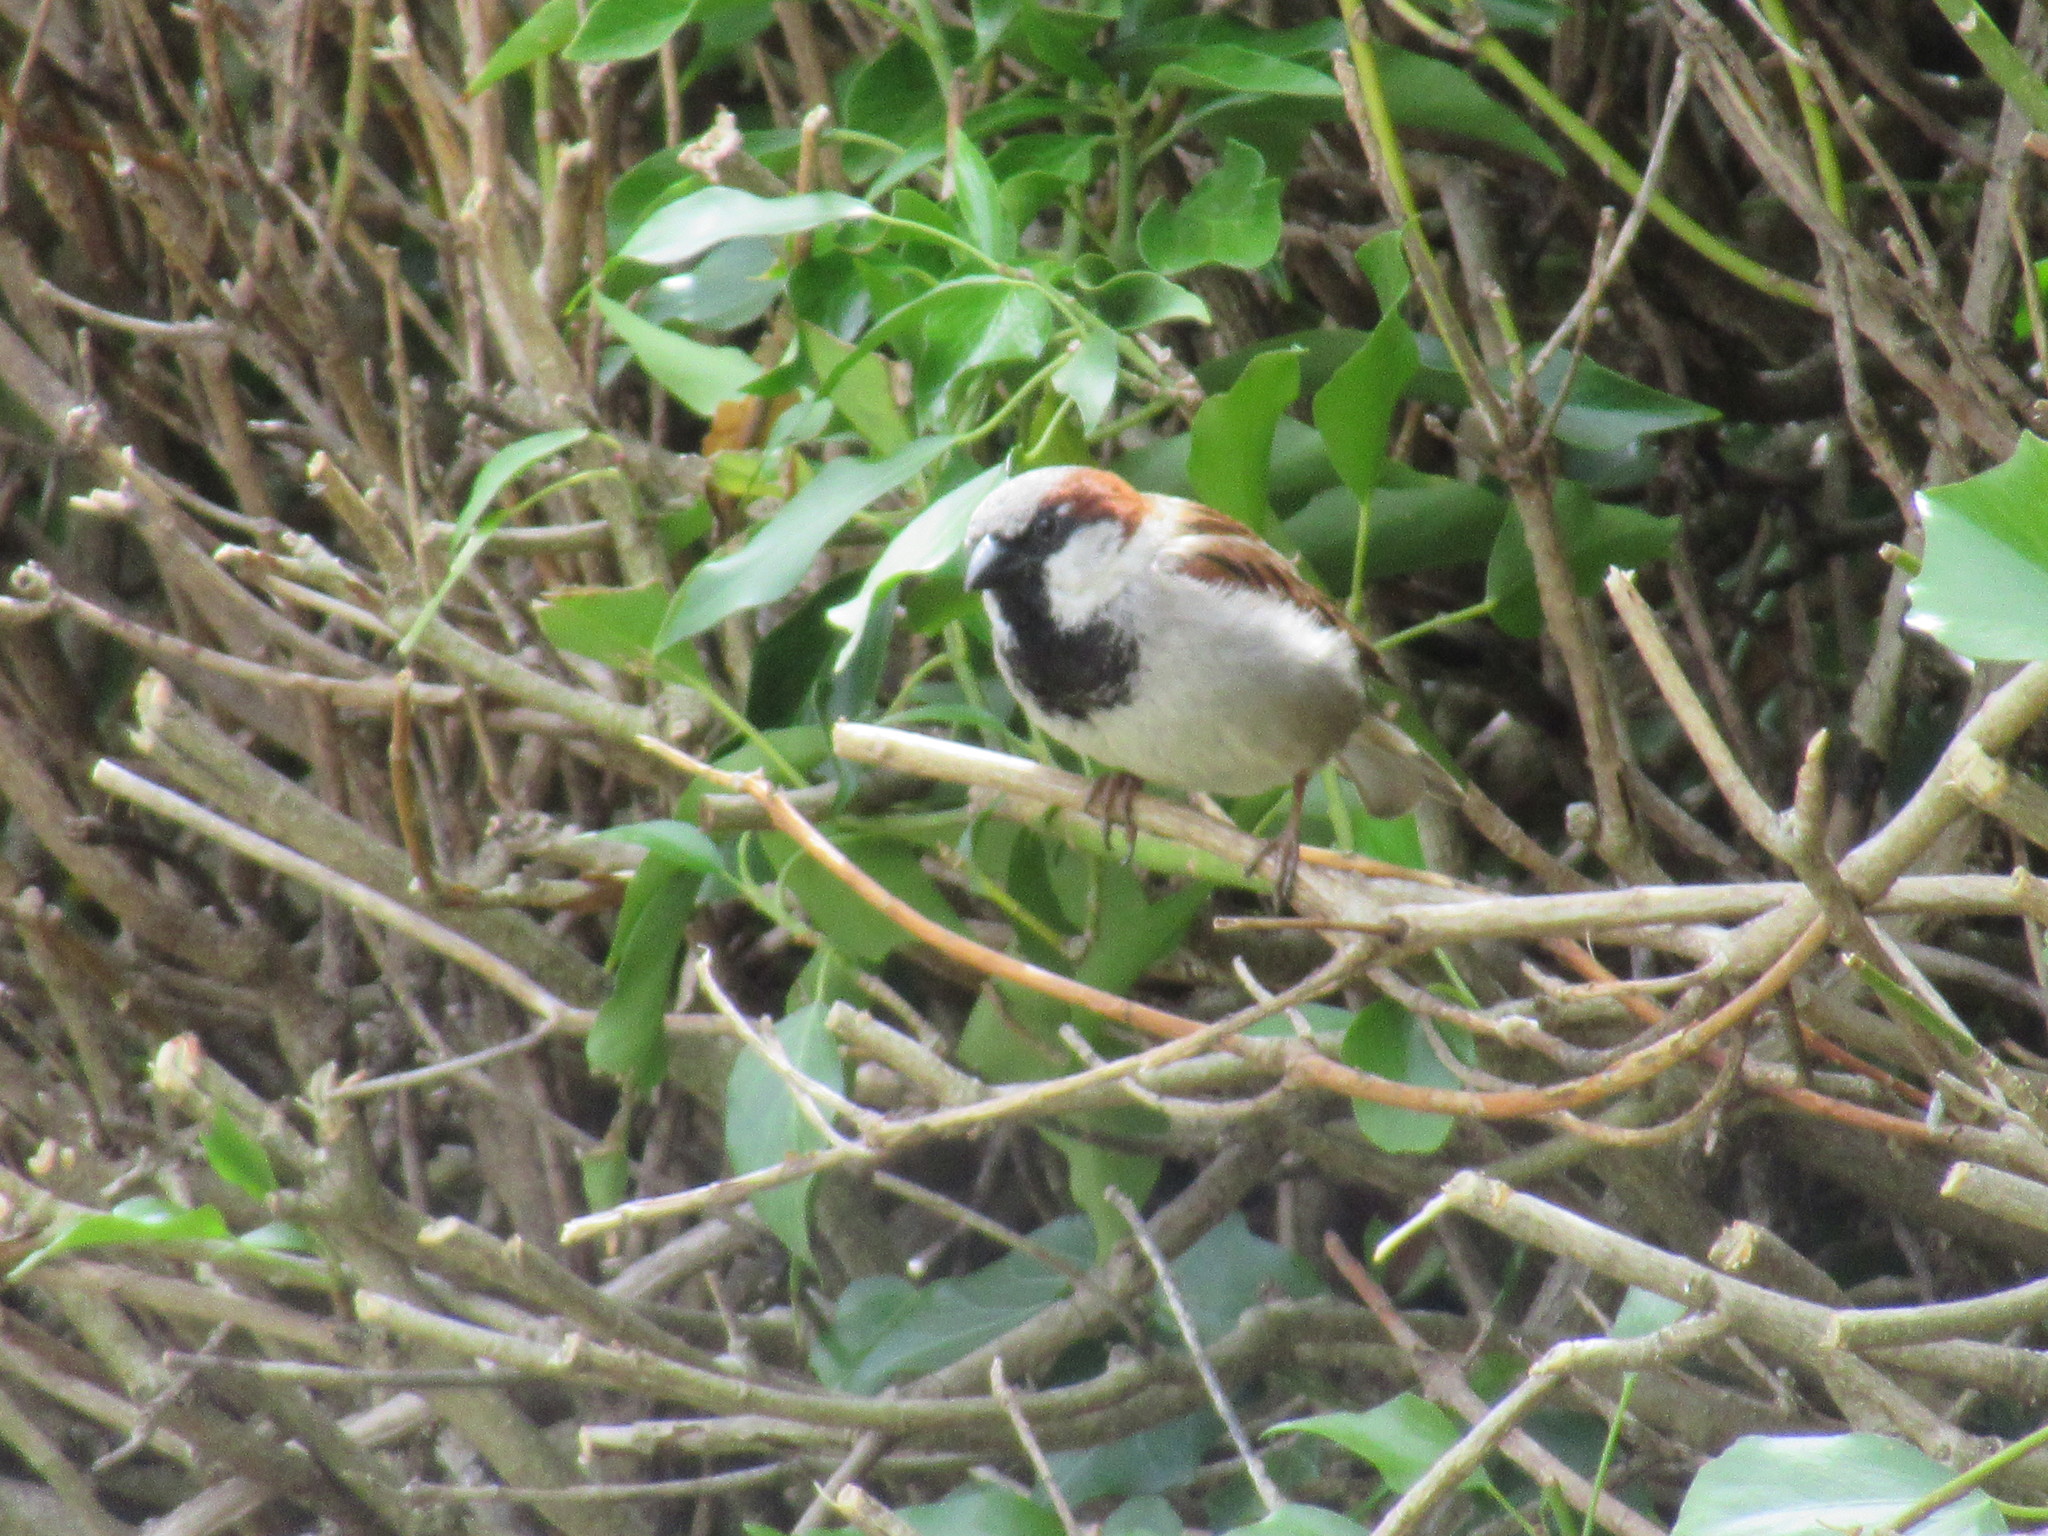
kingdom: Animalia
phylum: Chordata
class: Aves
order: Passeriformes
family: Passeridae
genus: Passer
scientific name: Passer domesticus
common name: House sparrow
